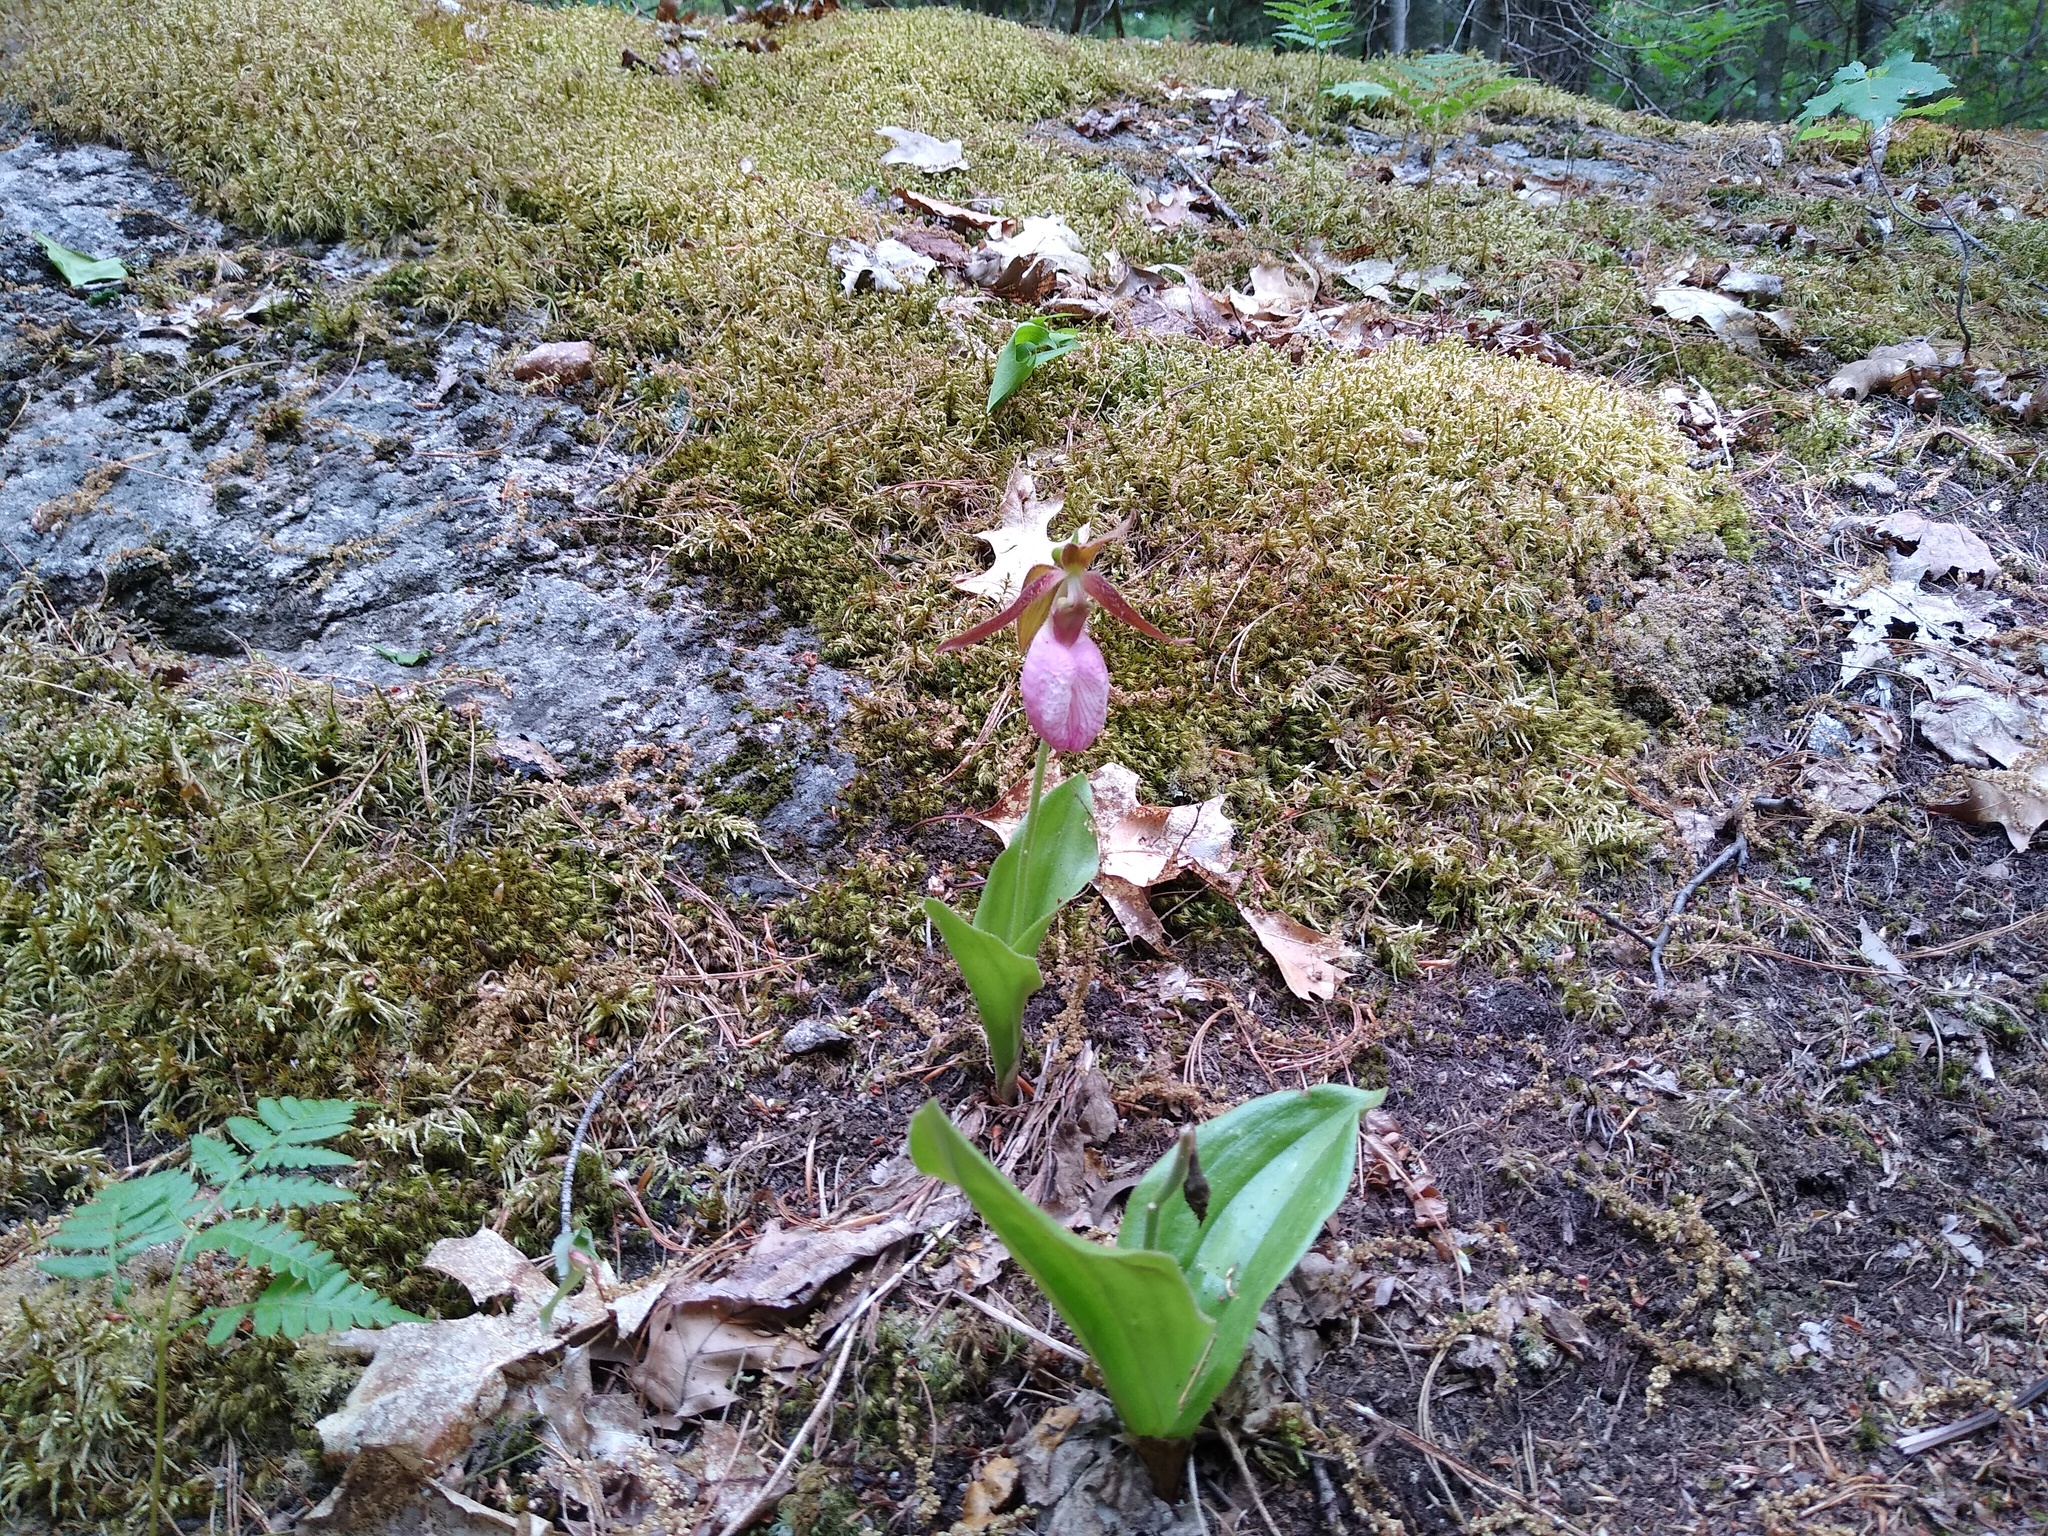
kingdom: Plantae
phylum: Tracheophyta
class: Liliopsida
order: Asparagales
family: Orchidaceae
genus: Cypripedium
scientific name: Cypripedium acaule
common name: Pink lady's-slipper
